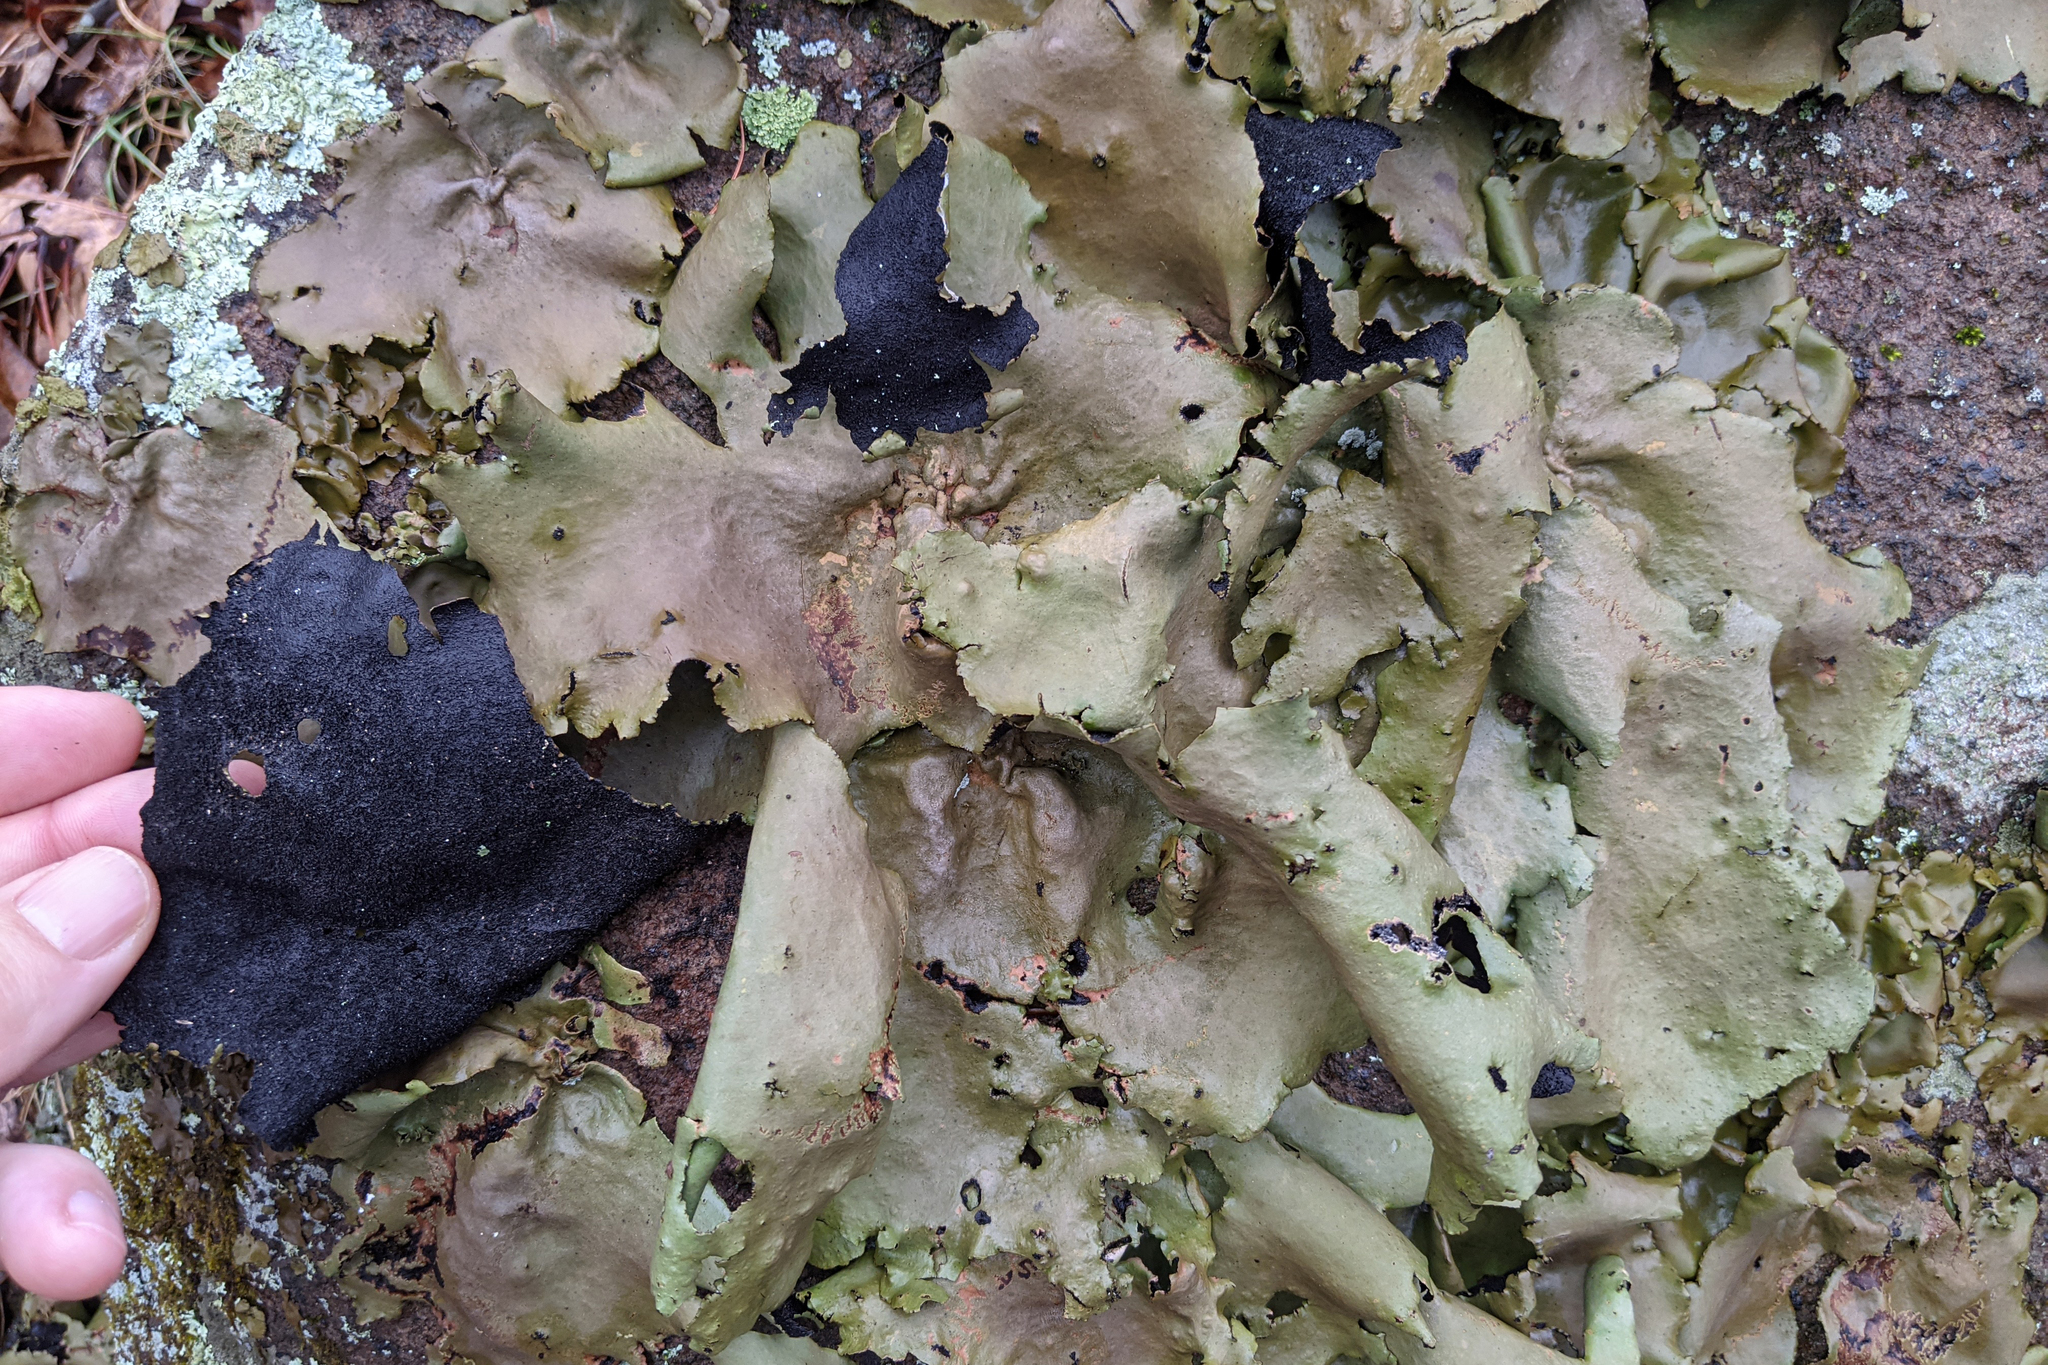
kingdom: Fungi
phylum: Ascomycota
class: Lecanoromycetes
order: Umbilicariales
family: Umbilicariaceae
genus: Umbilicaria
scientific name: Umbilicaria mammulata
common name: Smooth rock tripe
